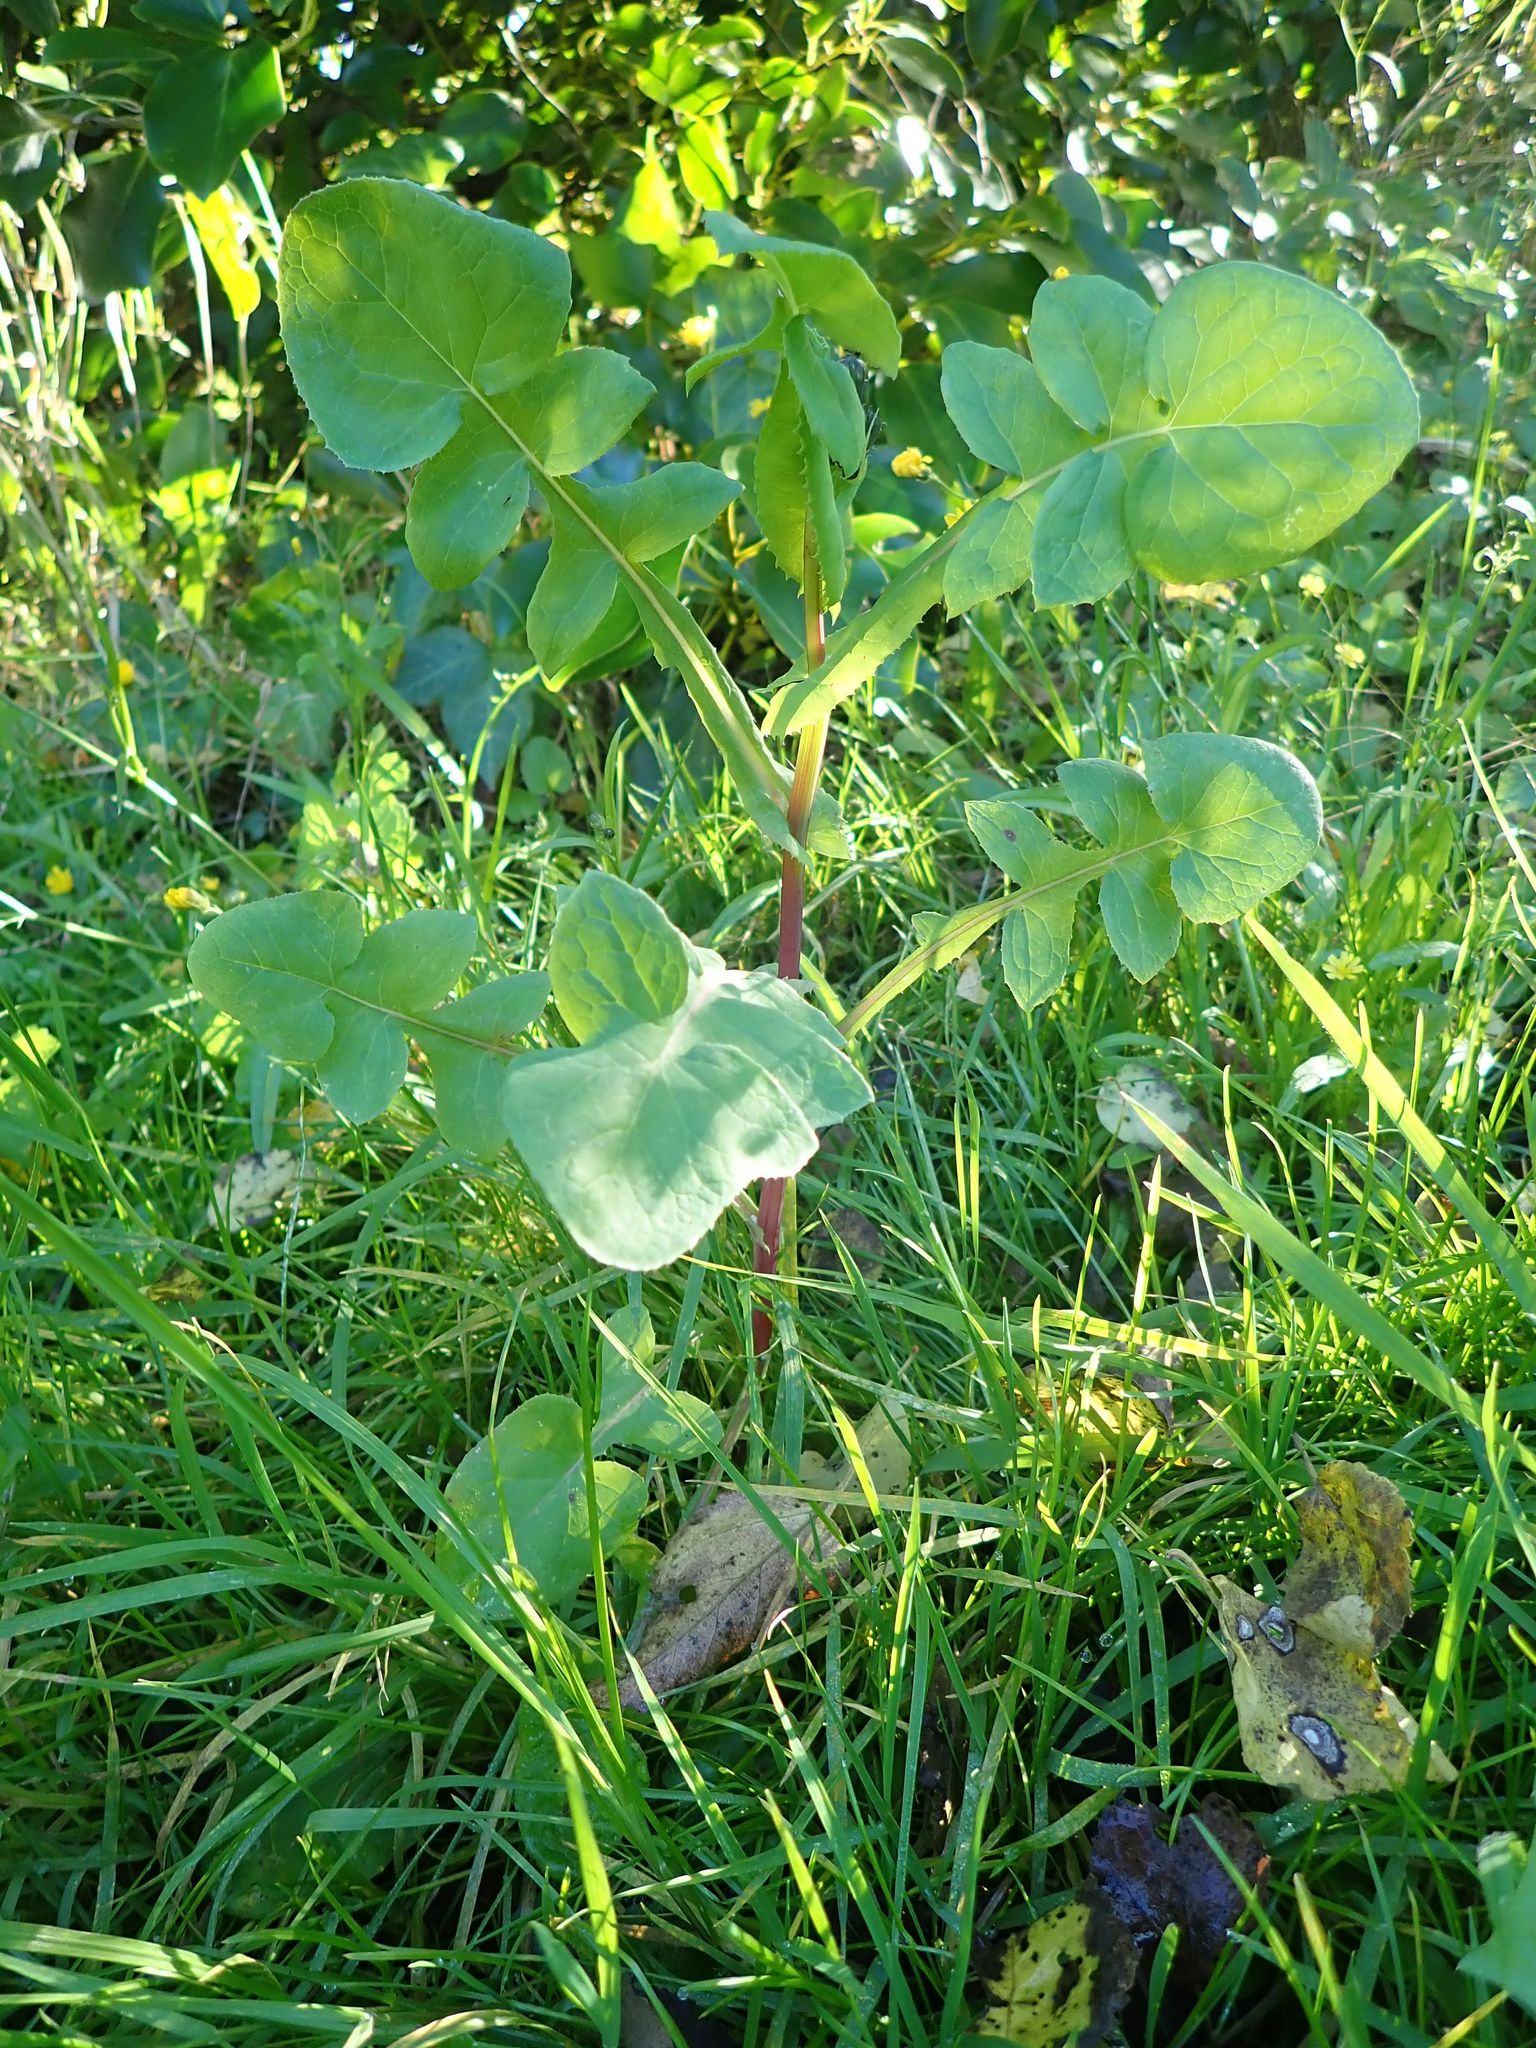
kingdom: Plantae
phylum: Tracheophyta
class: Magnoliopsida
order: Asterales
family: Asteraceae
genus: Sonchus
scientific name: Sonchus oleraceus
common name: Common sowthistle
